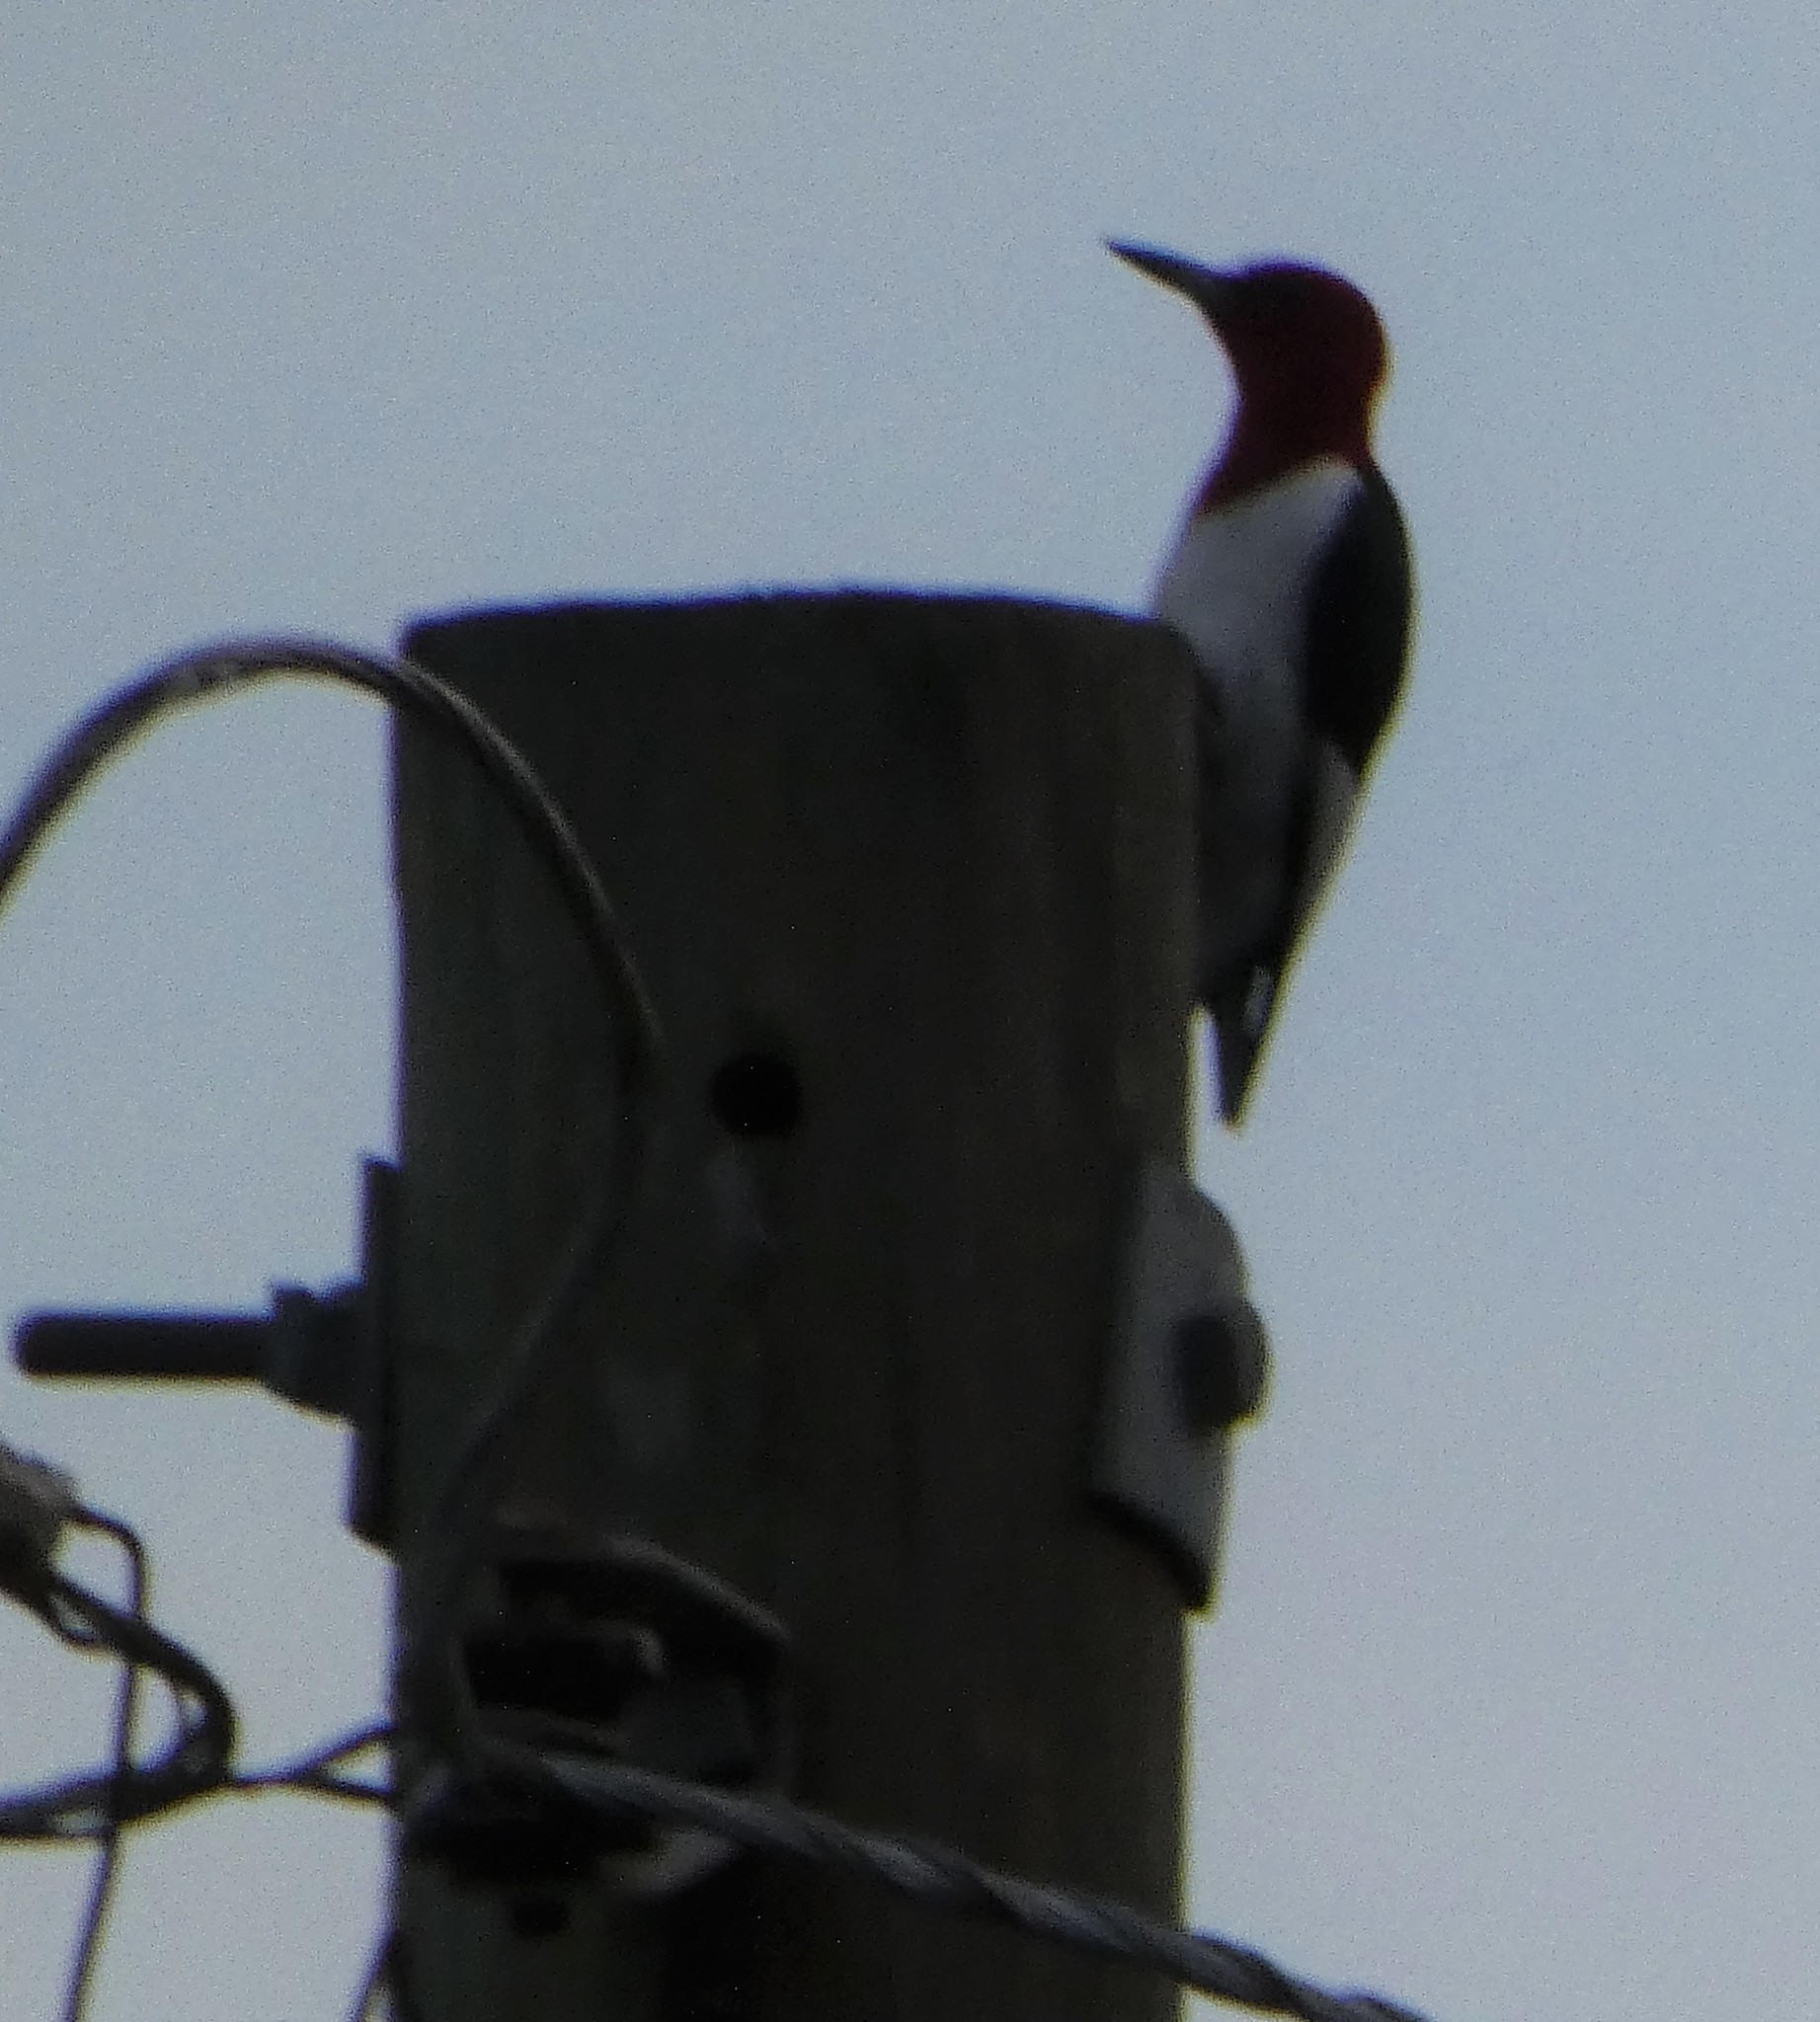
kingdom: Animalia
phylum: Chordata
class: Aves
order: Piciformes
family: Picidae
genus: Melanerpes
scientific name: Melanerpes erythrocephalus
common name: Red-headed woodpecker
